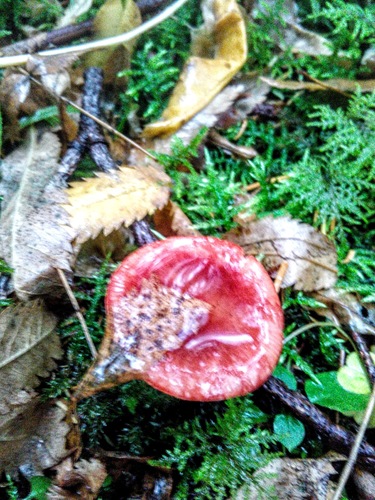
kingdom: Fungi
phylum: Basidiomycota
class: Agaricomycetes
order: Russulales
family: Russulaceae
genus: Russula
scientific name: Russula
